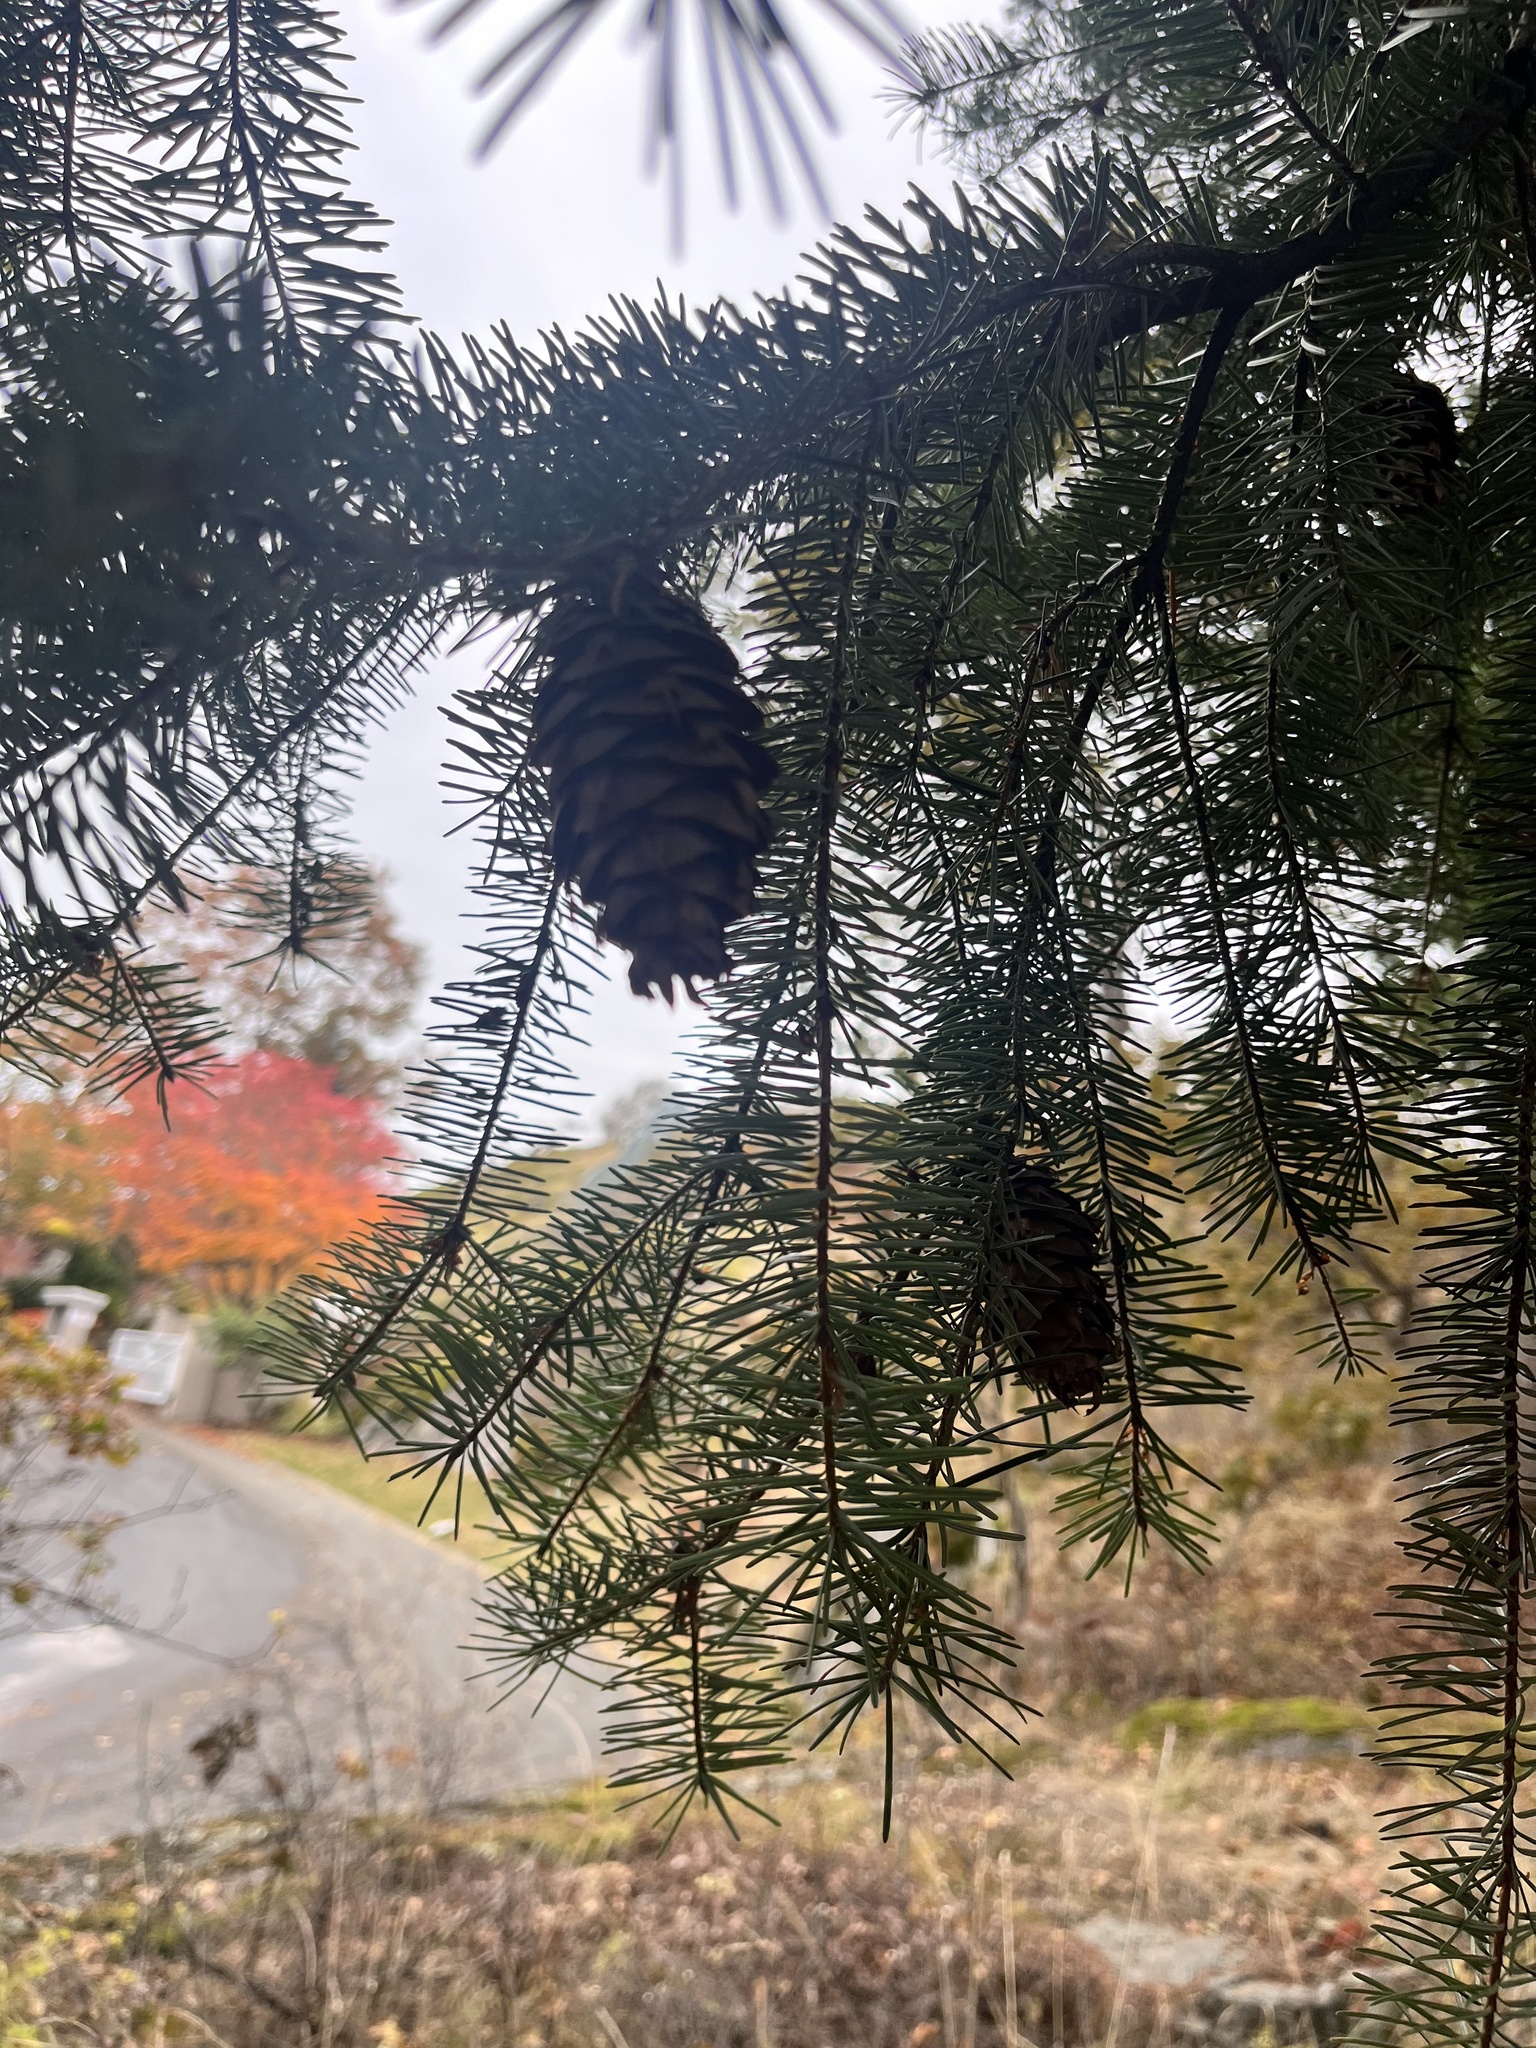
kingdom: Plantae
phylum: Tracheophyta
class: Pinopsida
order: Pinales
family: Pinaceae
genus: Pseudotsuga
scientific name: Pseudotsuga menziesii
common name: Douglas fir
